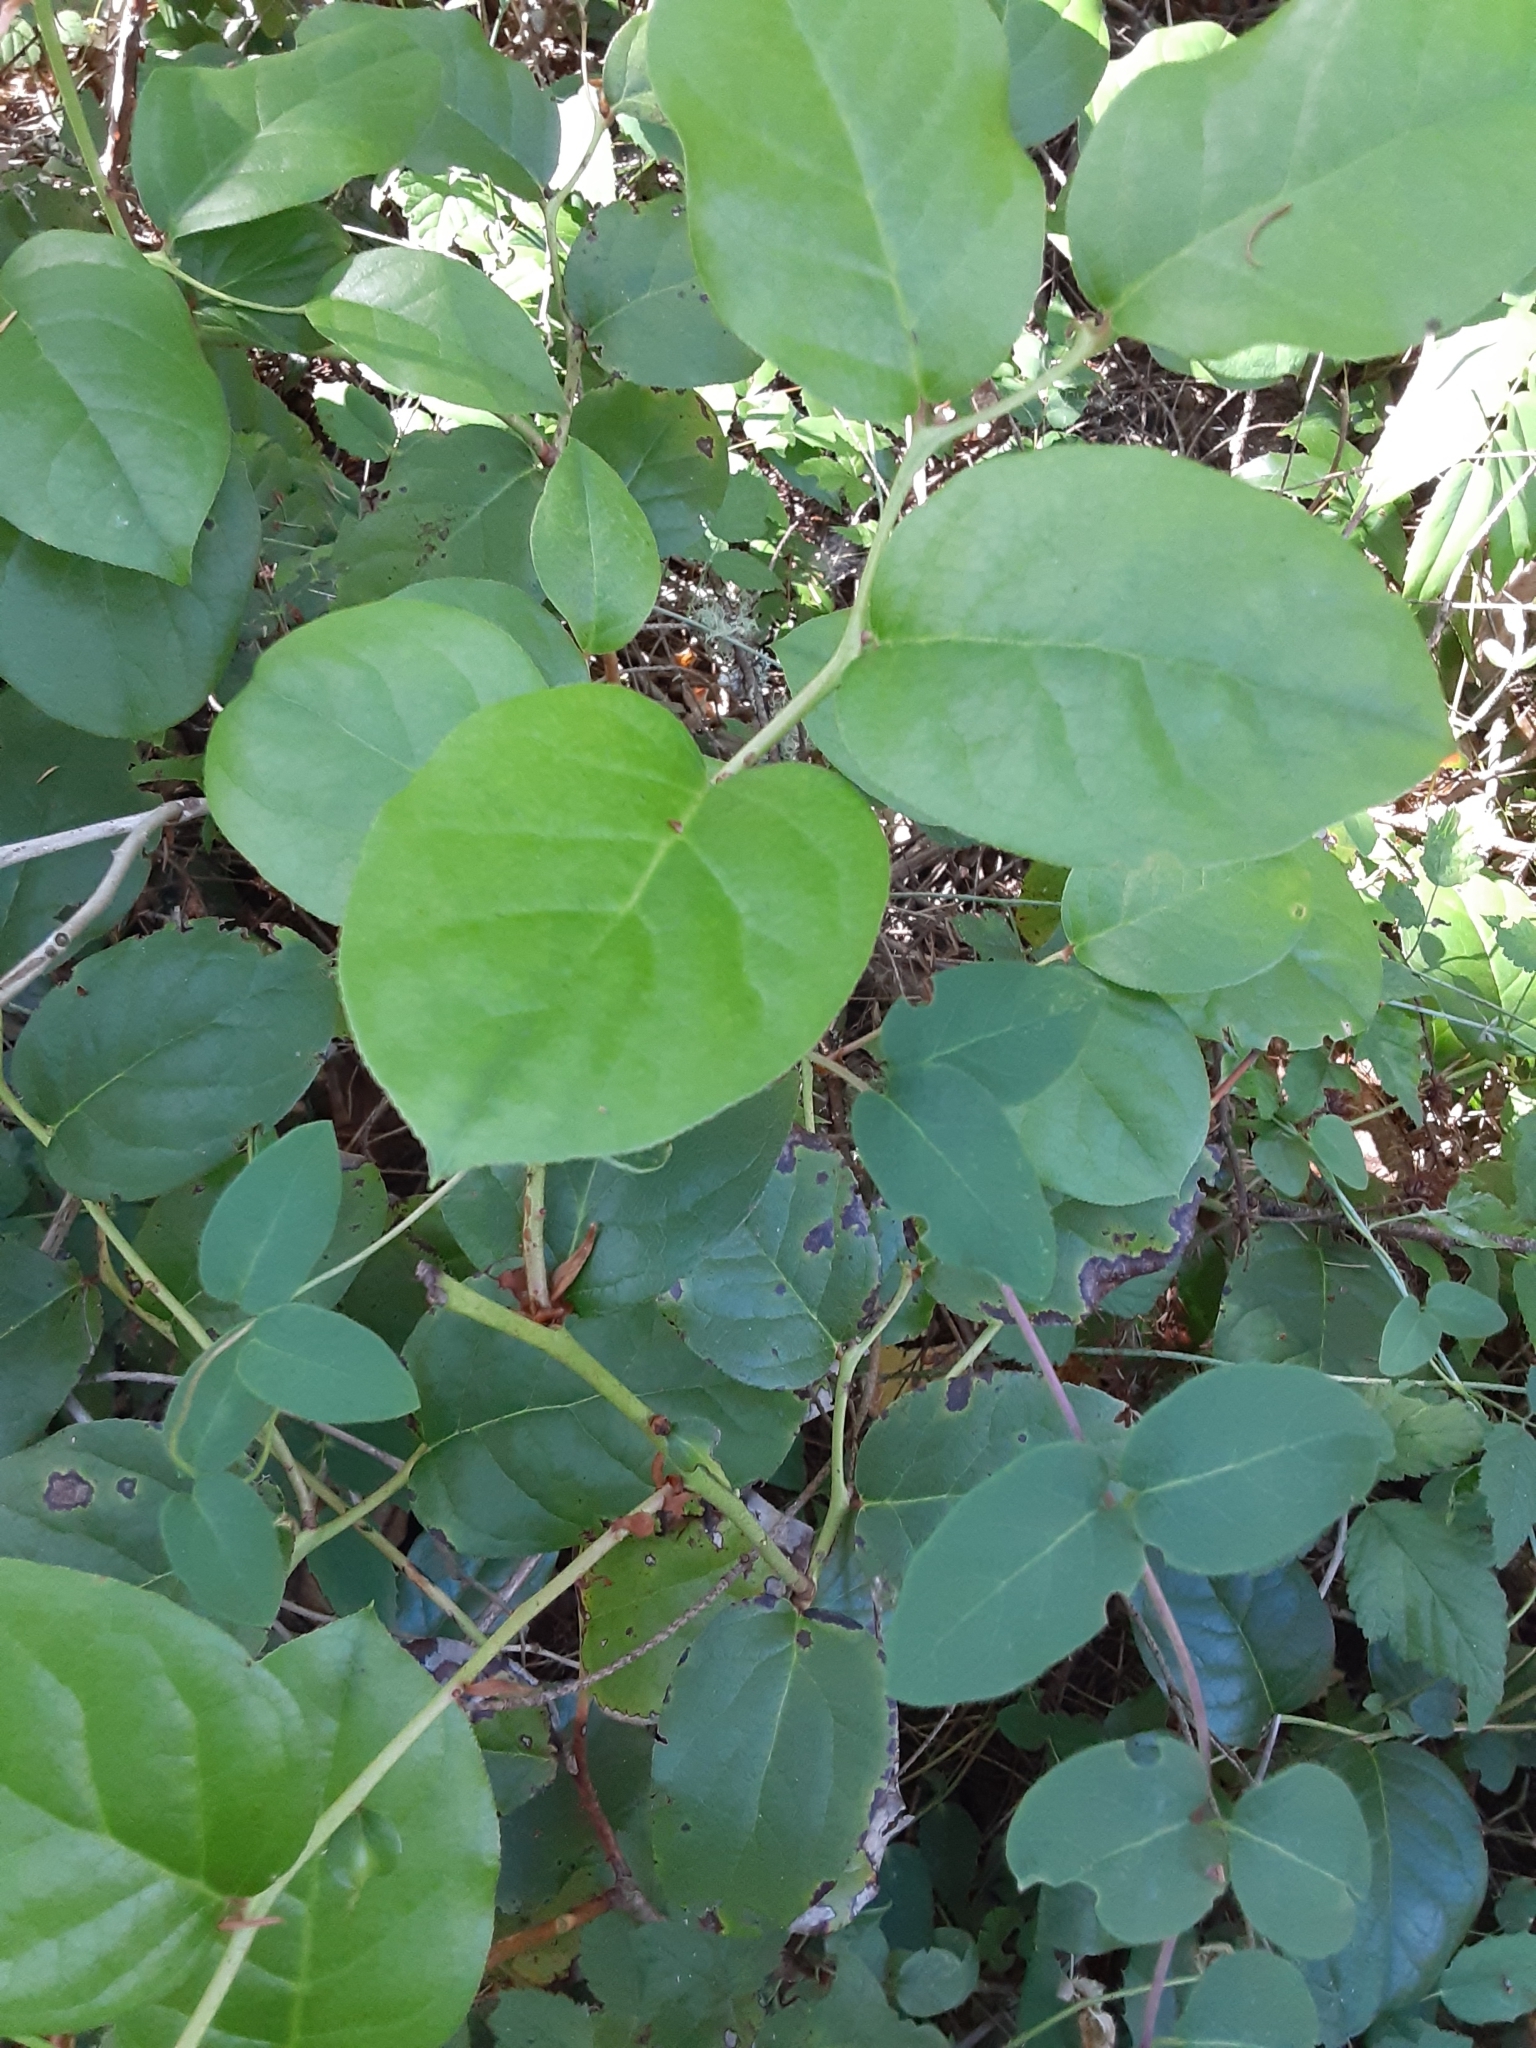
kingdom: Plantae
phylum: Tracheophyta
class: Magnoliopsida
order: Ericales
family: Ericaceae
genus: Gaultheria
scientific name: Gaultheria shallon
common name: Shallon
